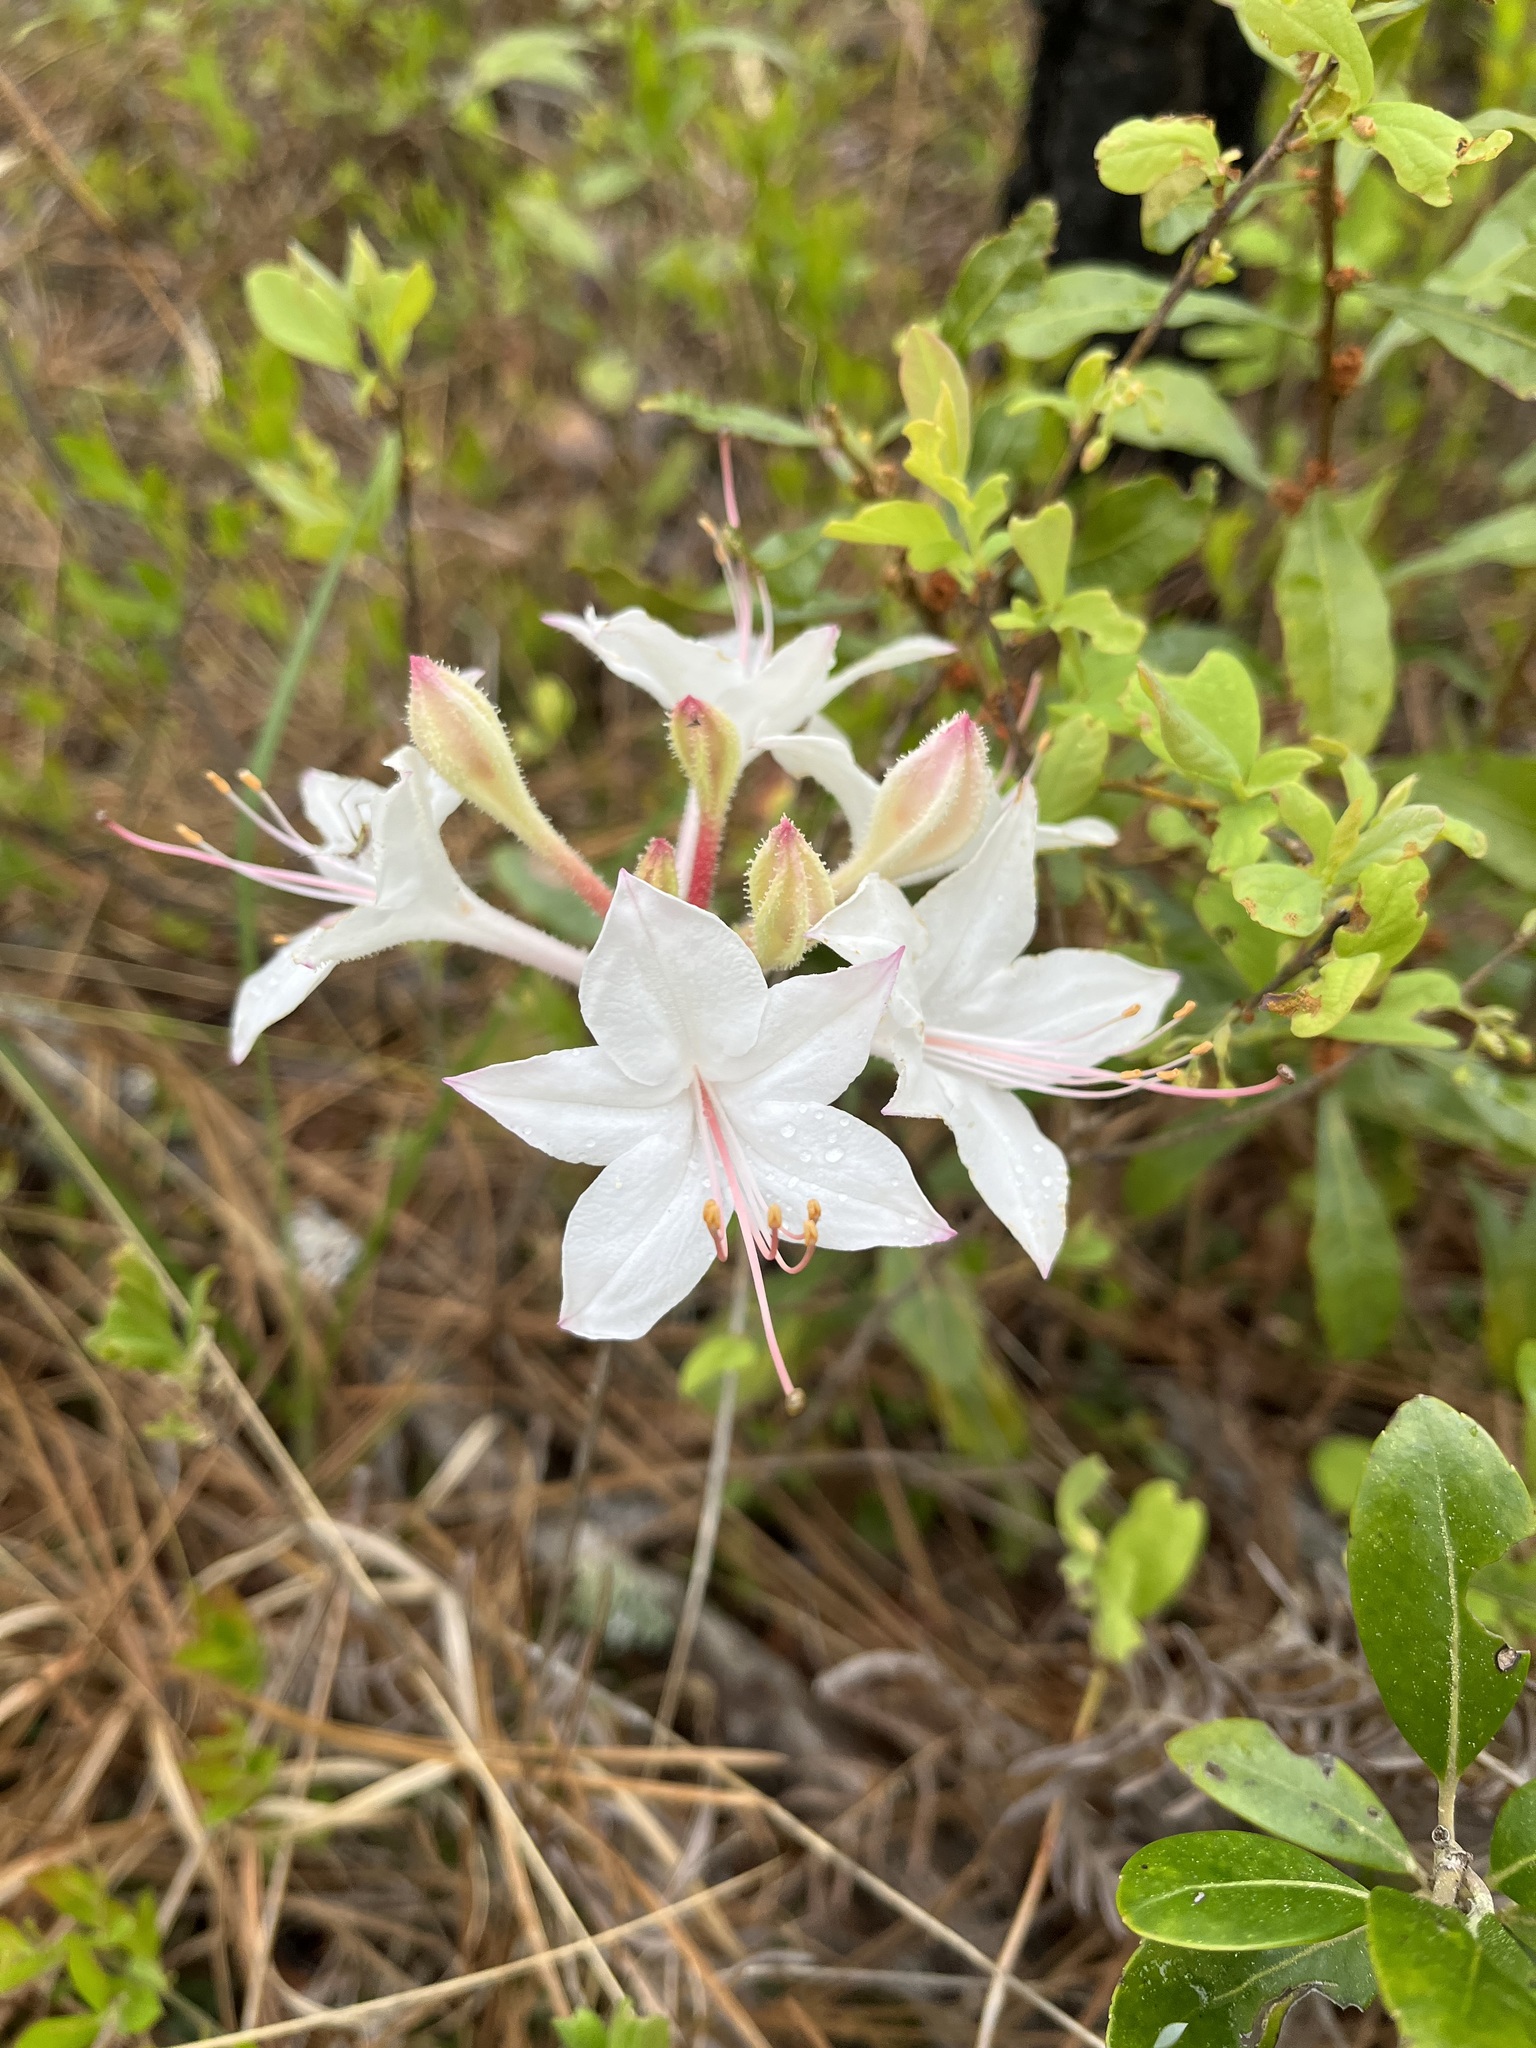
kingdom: Plantae
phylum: Tracheophyta
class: Magnoliopsida
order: Ericales
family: Ericaceae
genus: Rhododendron
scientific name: Rhododendron atlanticum
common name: Dwarf azalea
